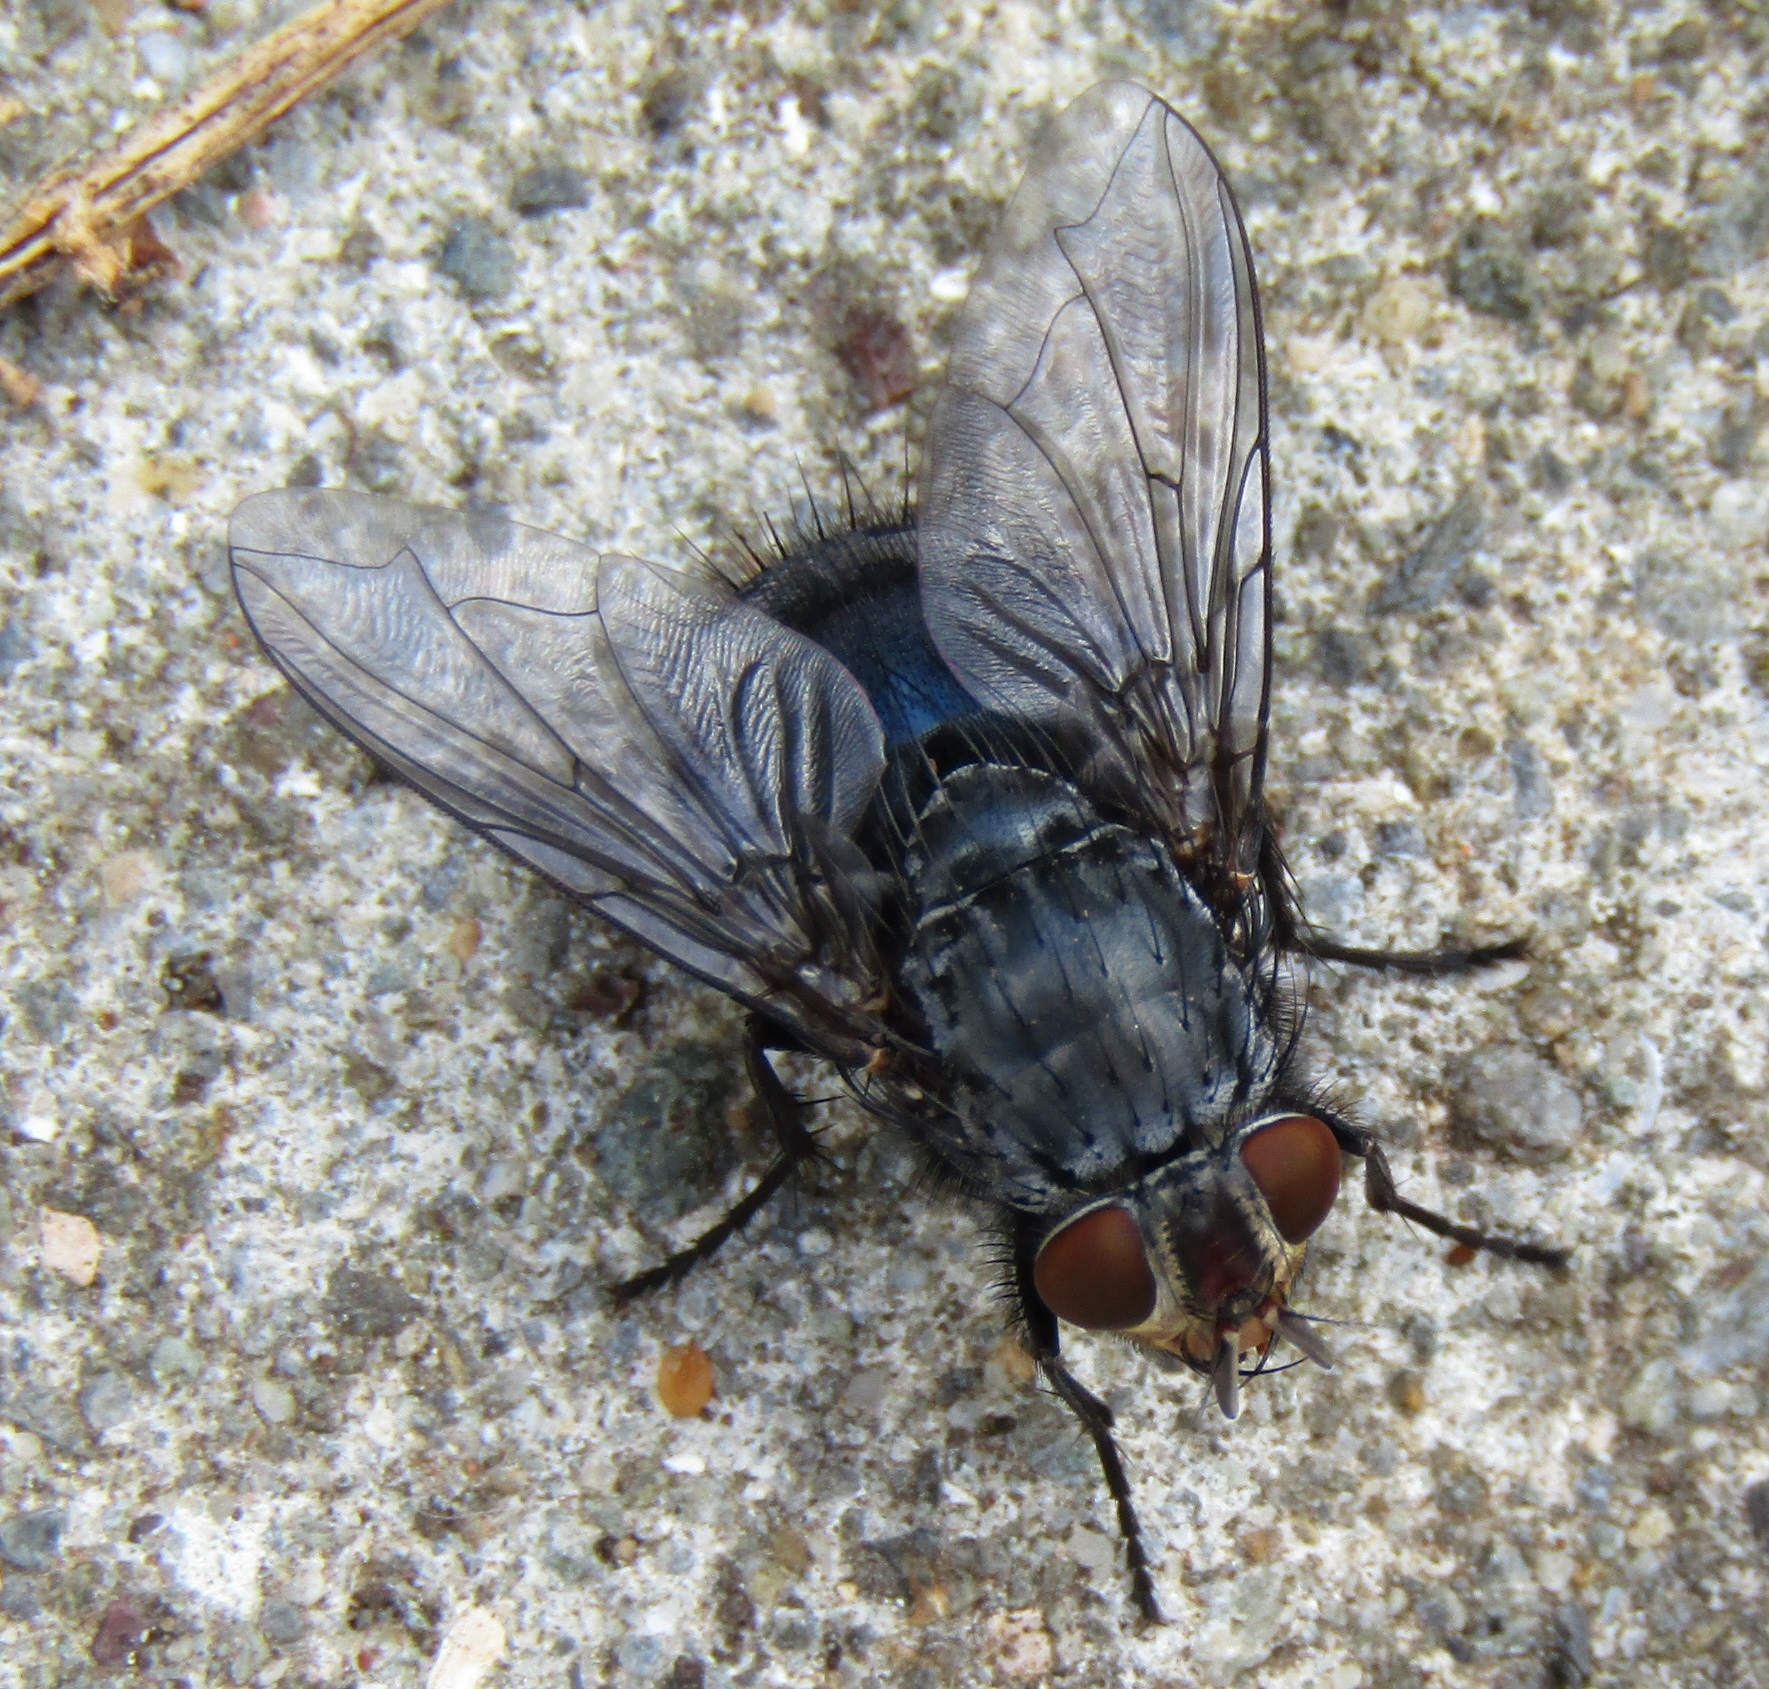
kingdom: Animalia
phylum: Arthropoda
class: Insecta
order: Diptera
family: Calliphoridae
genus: Calliphora
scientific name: Calliphora vicina
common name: Common blow flie
